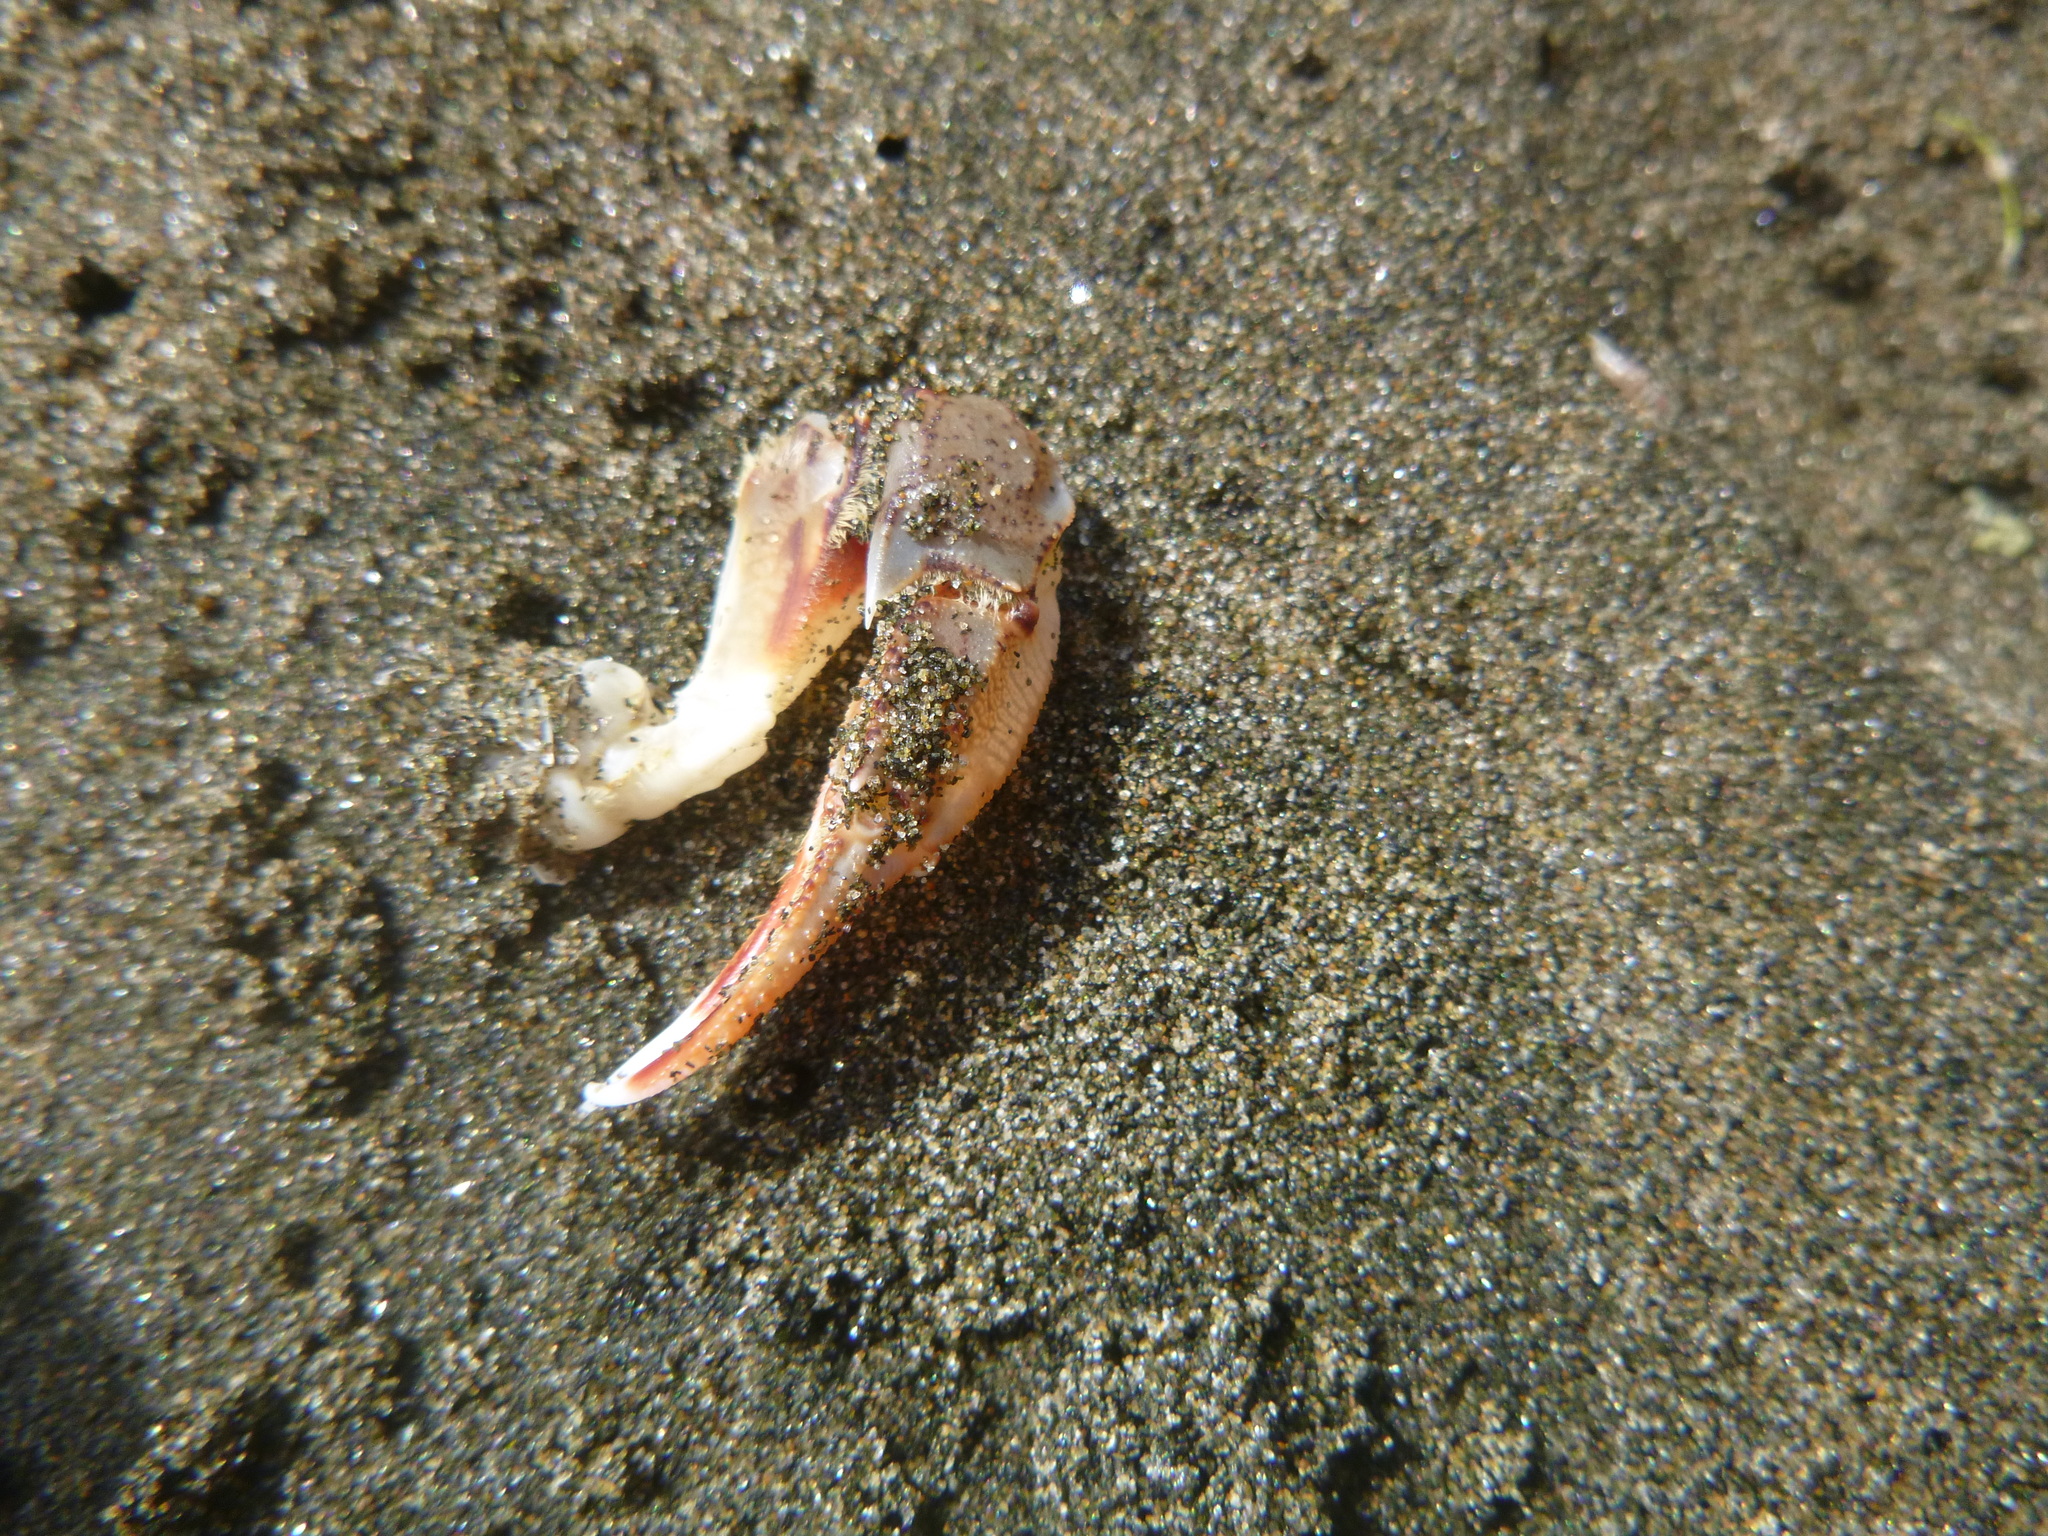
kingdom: Animalia
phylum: Arthropoda
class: Malacostraca
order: Decapoda
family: Ovalipidae
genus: Ovalipes
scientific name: Ovalipes catharus
